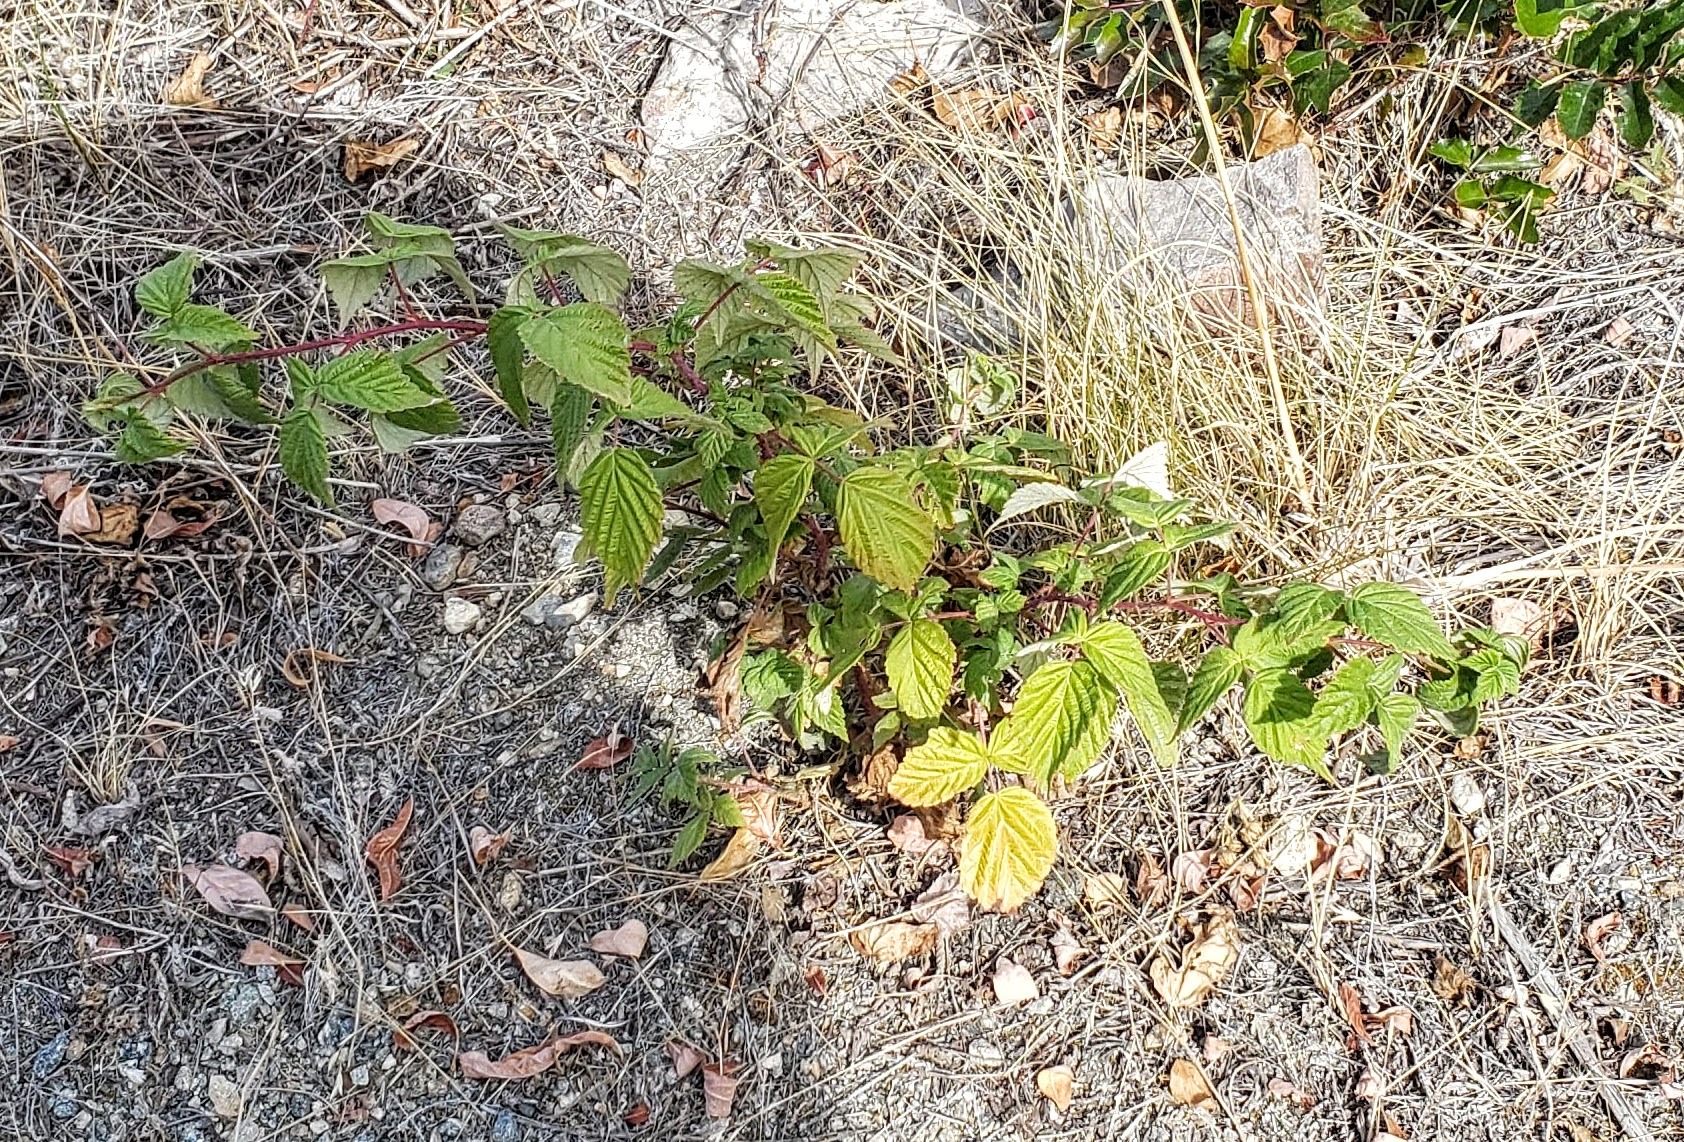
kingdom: Plantae
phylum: Tracheophyta
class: Magnoliopsida
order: Rosales
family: Rosaceae
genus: Rubus
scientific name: Rubus idaeus
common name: Raspberry
